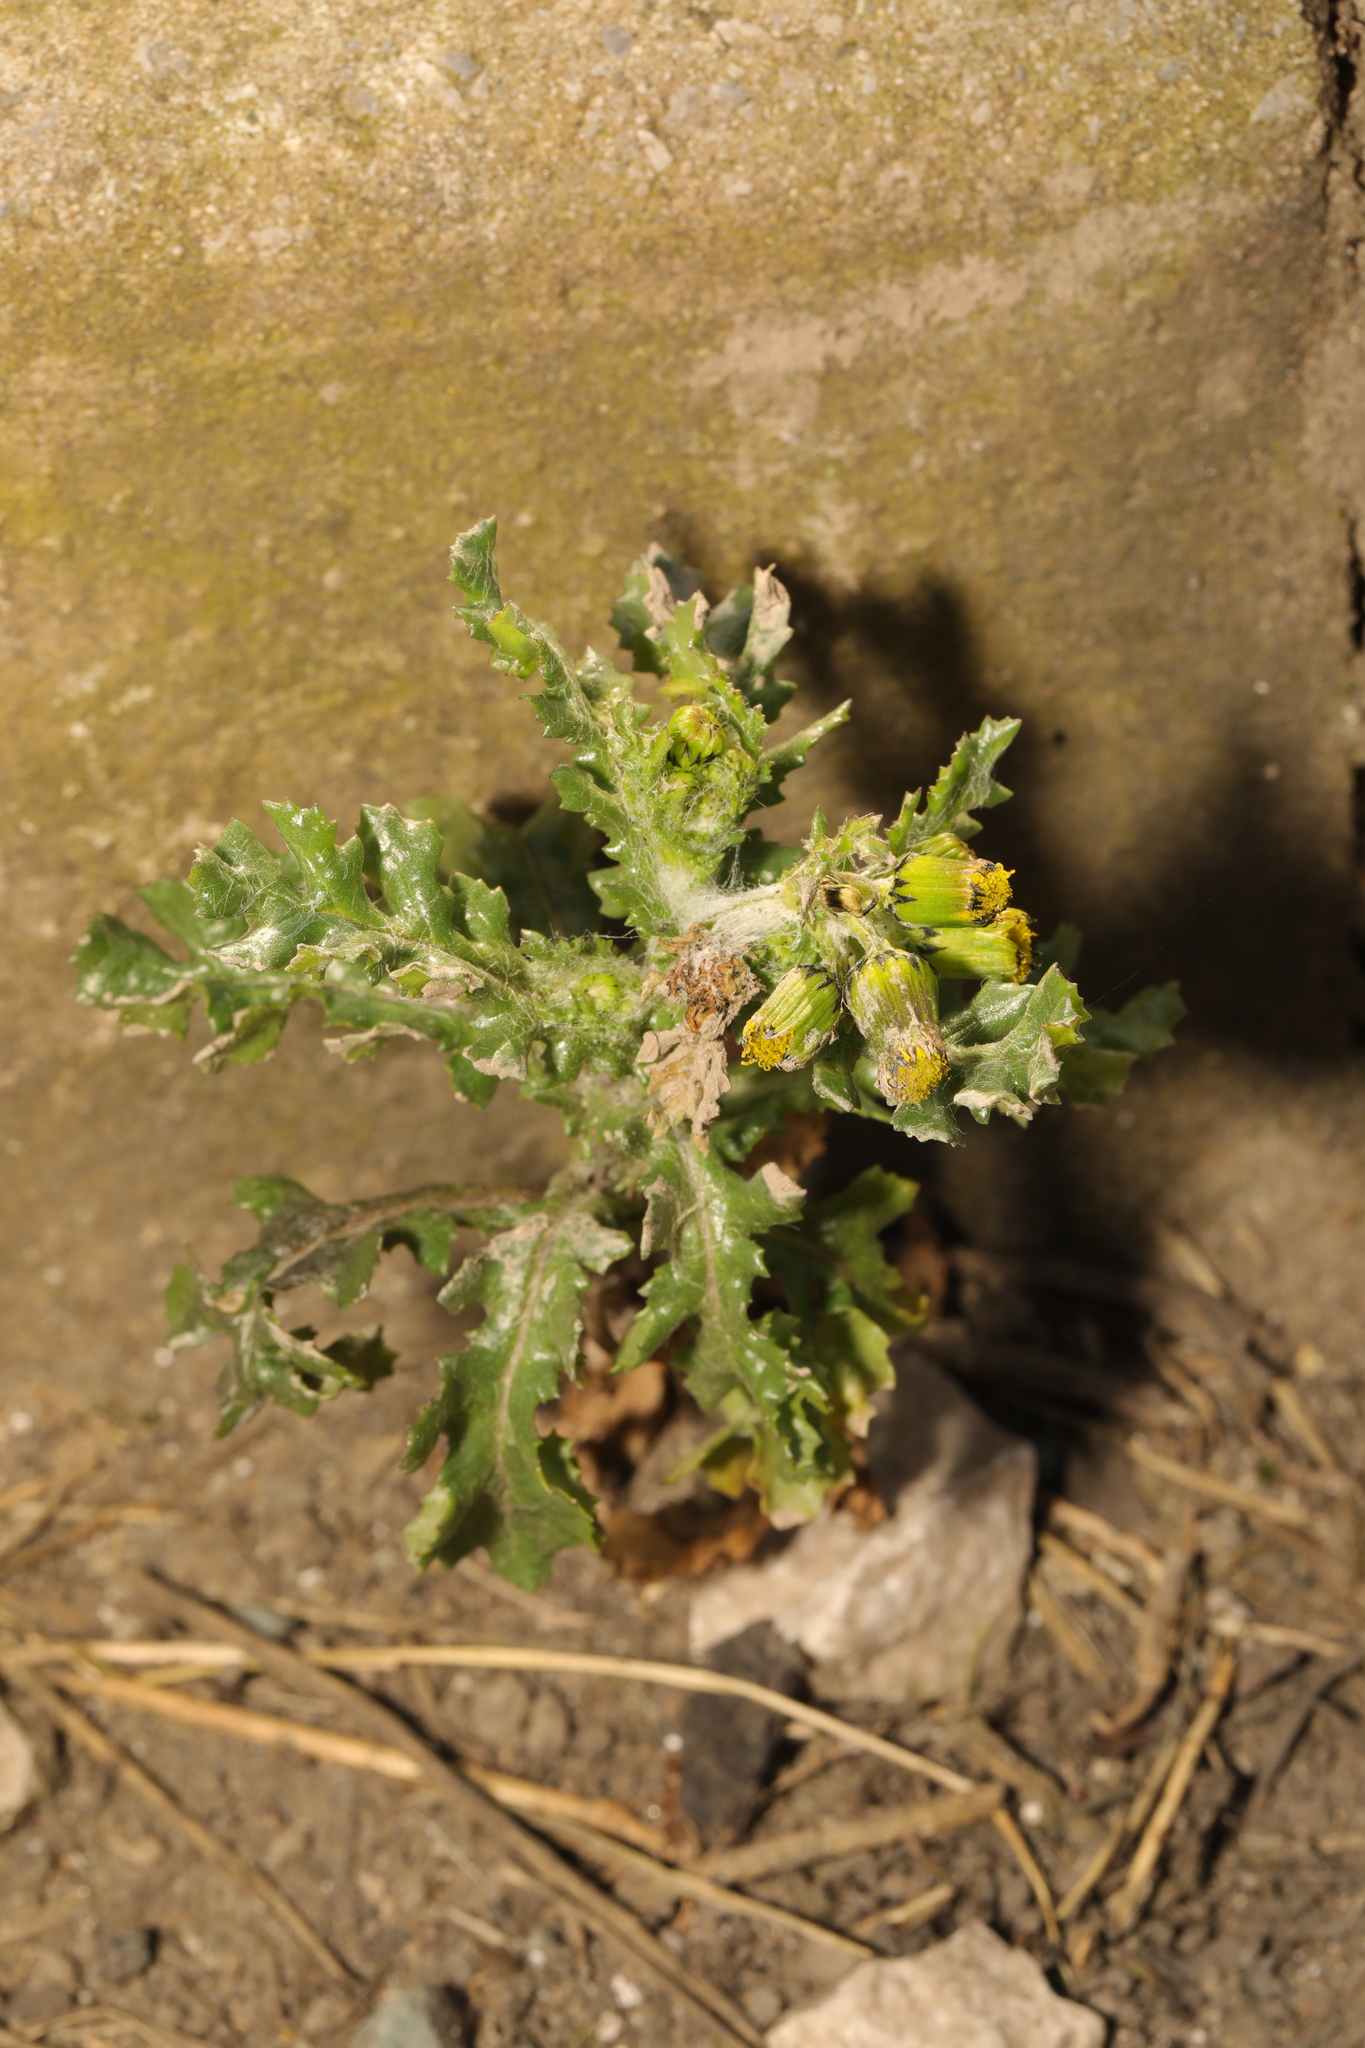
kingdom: Plantae
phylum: Tracheophyta
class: Magnoliopsida
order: Asterales
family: Asteraceae
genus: Senecio
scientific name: Senecio vulgaris
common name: Old-man-in-the-spring
